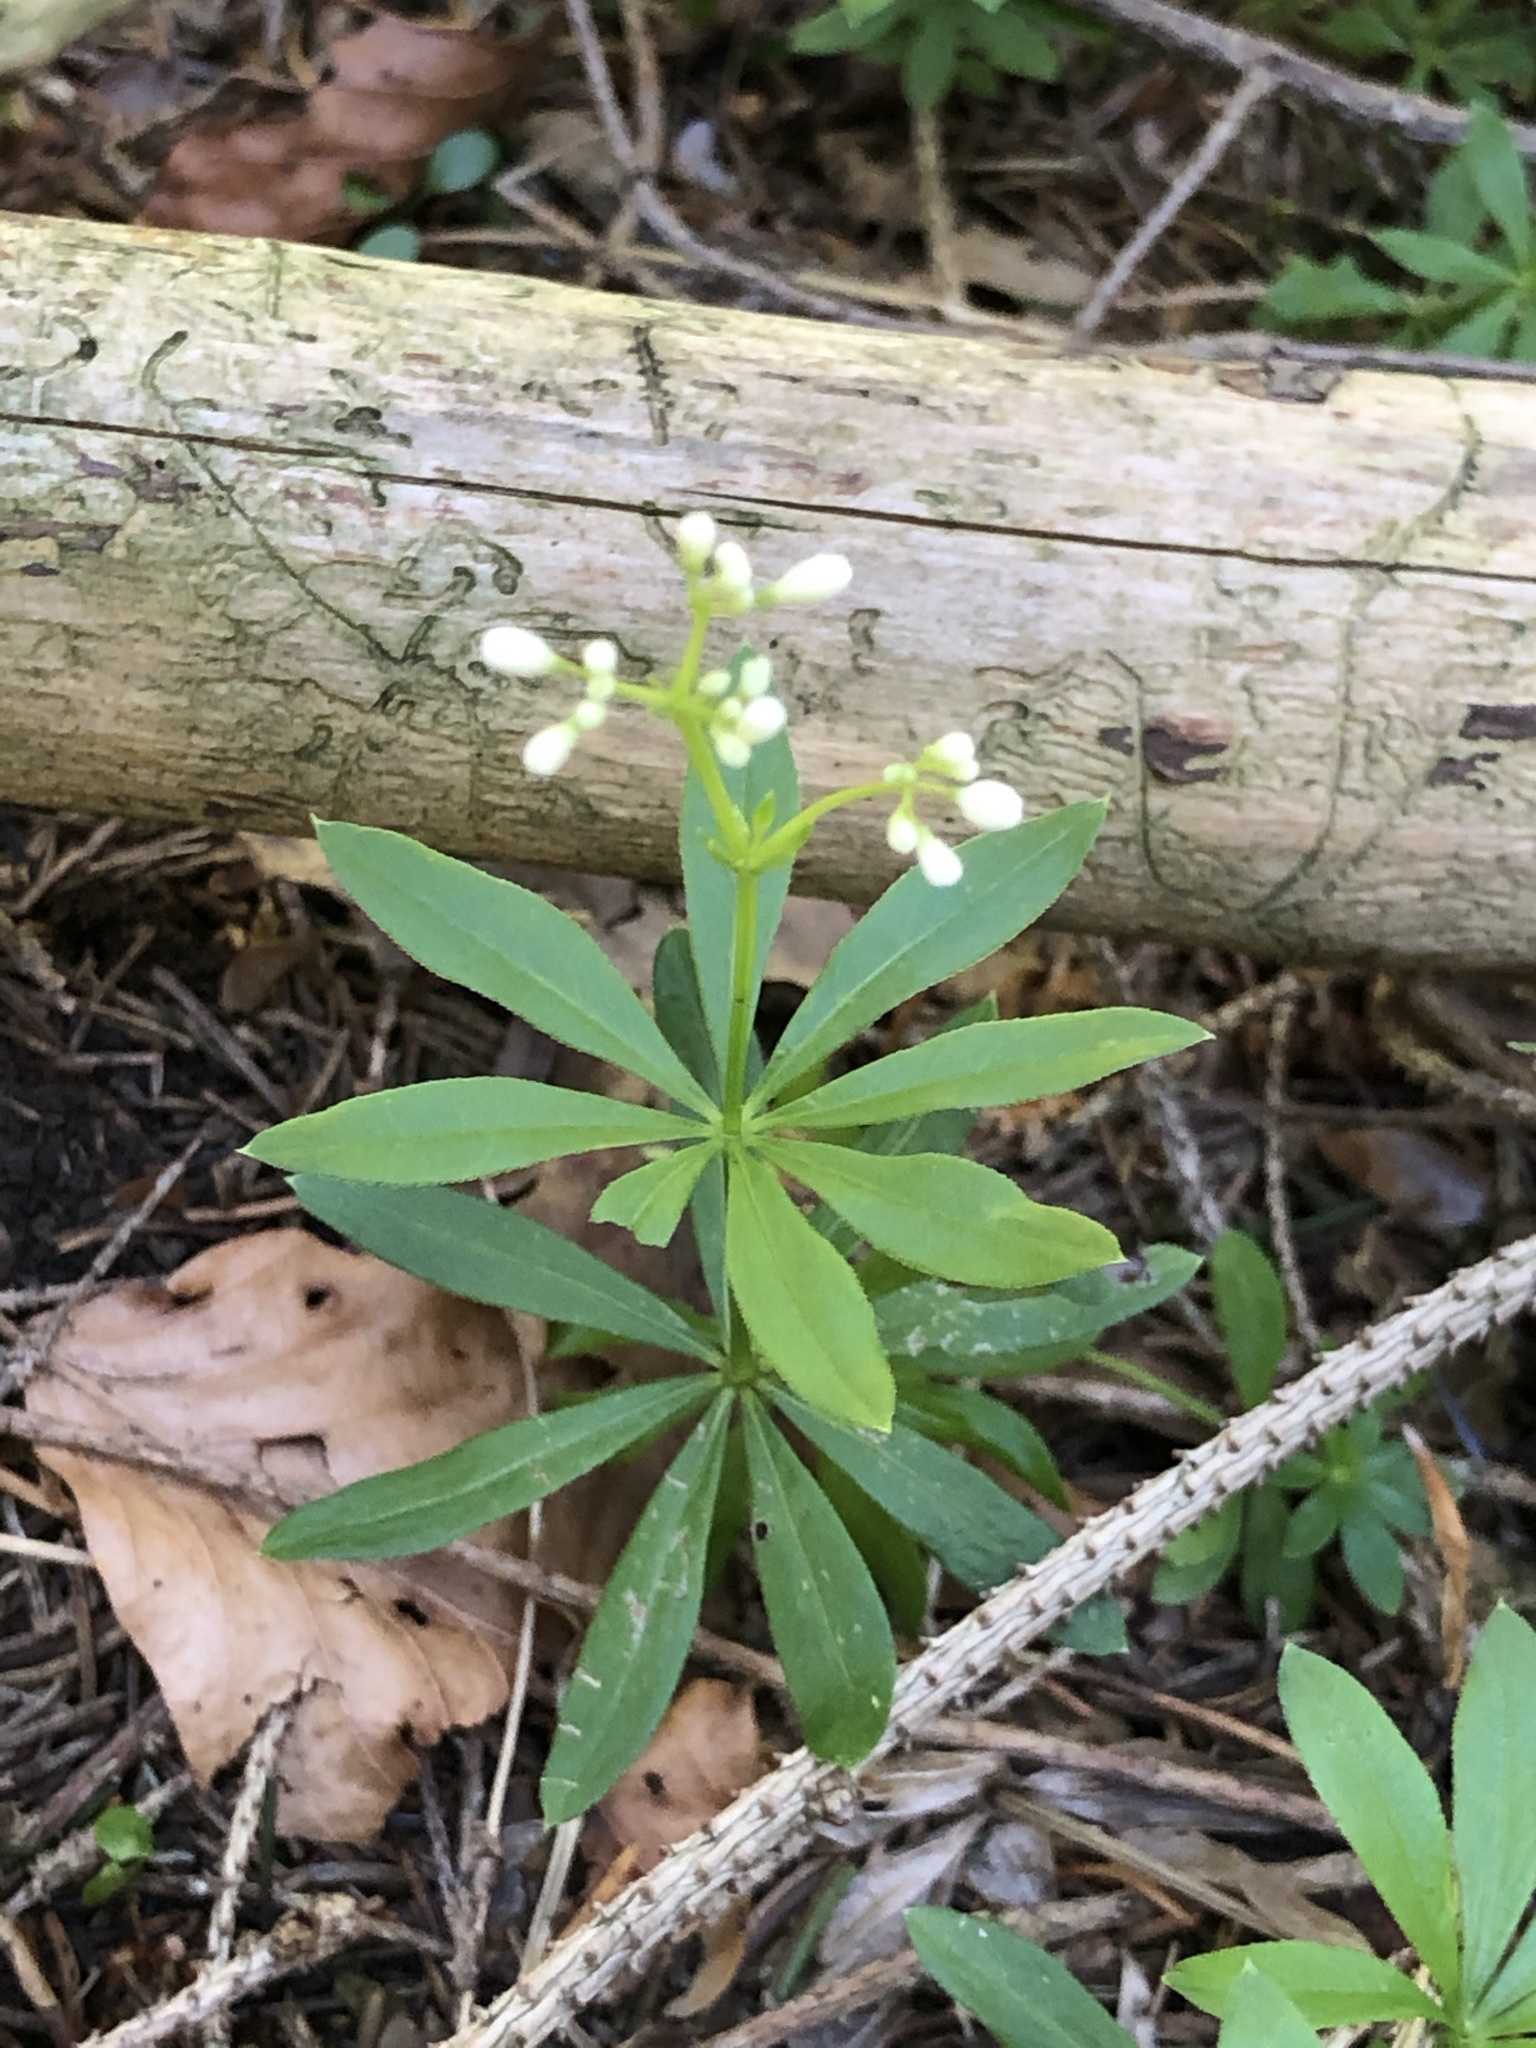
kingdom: Plantae
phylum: Tracheophyta
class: Magnoliopsida
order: Gentianales
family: Rubiaceae
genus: Galium
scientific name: Galium odoratum
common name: Sweet woodruff
